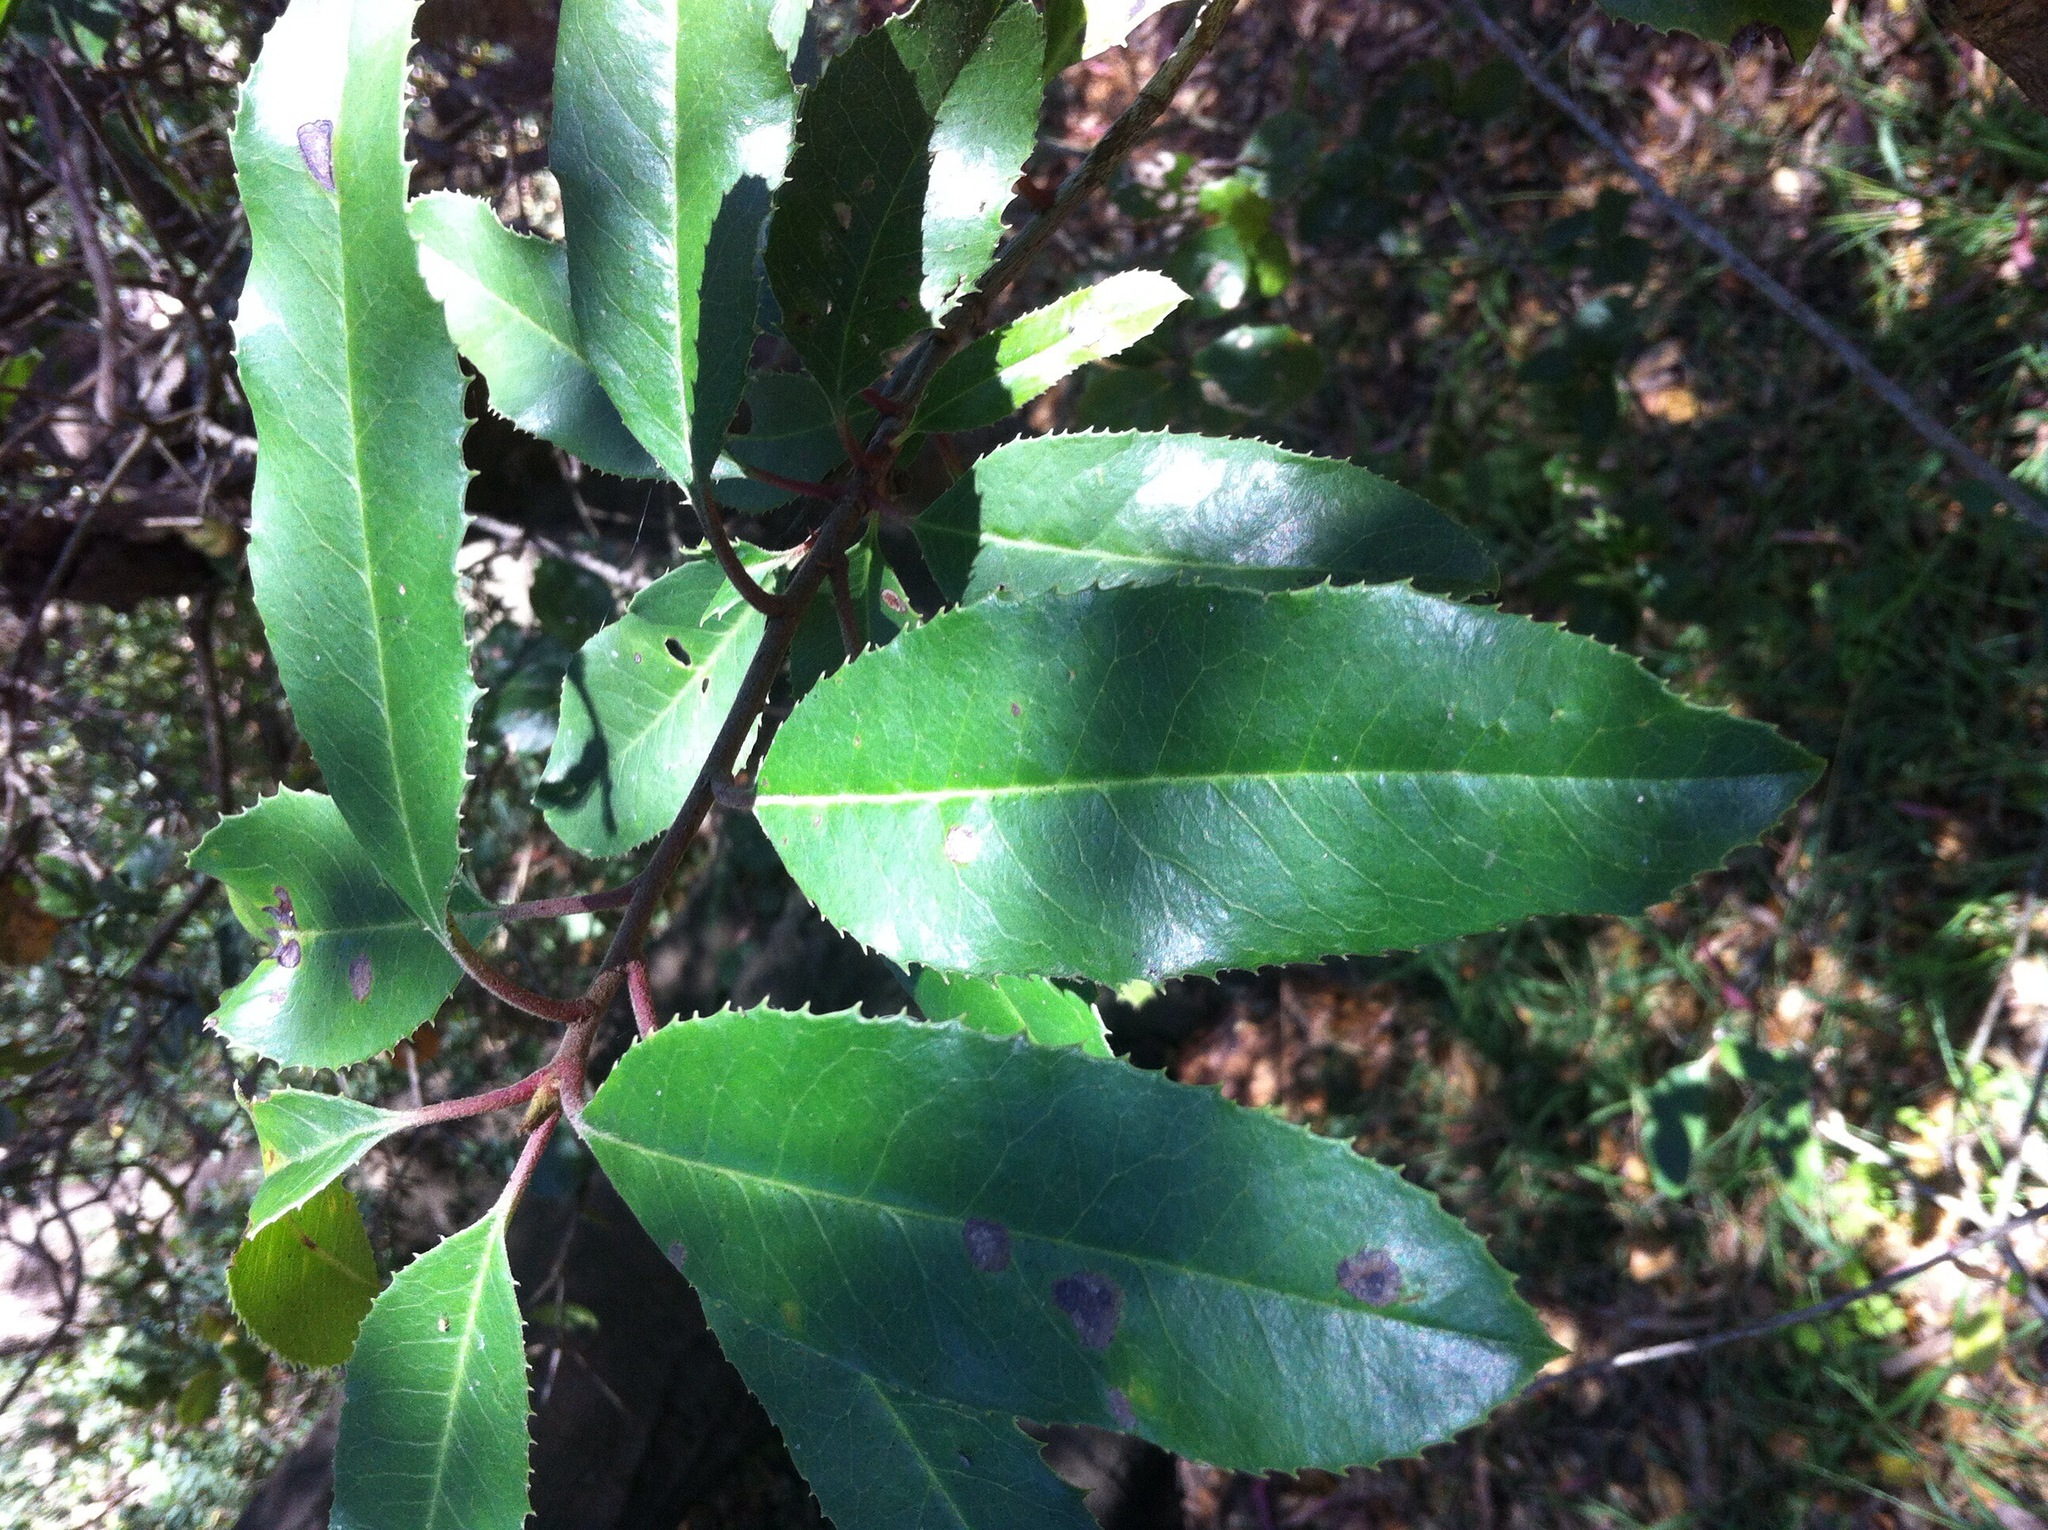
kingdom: Plantae
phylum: Tracheophyta
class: Magnoliopsida
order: Rosales
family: Rosaceae
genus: Heteromeles
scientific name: Heteromeles arbutifolia
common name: California-holly
